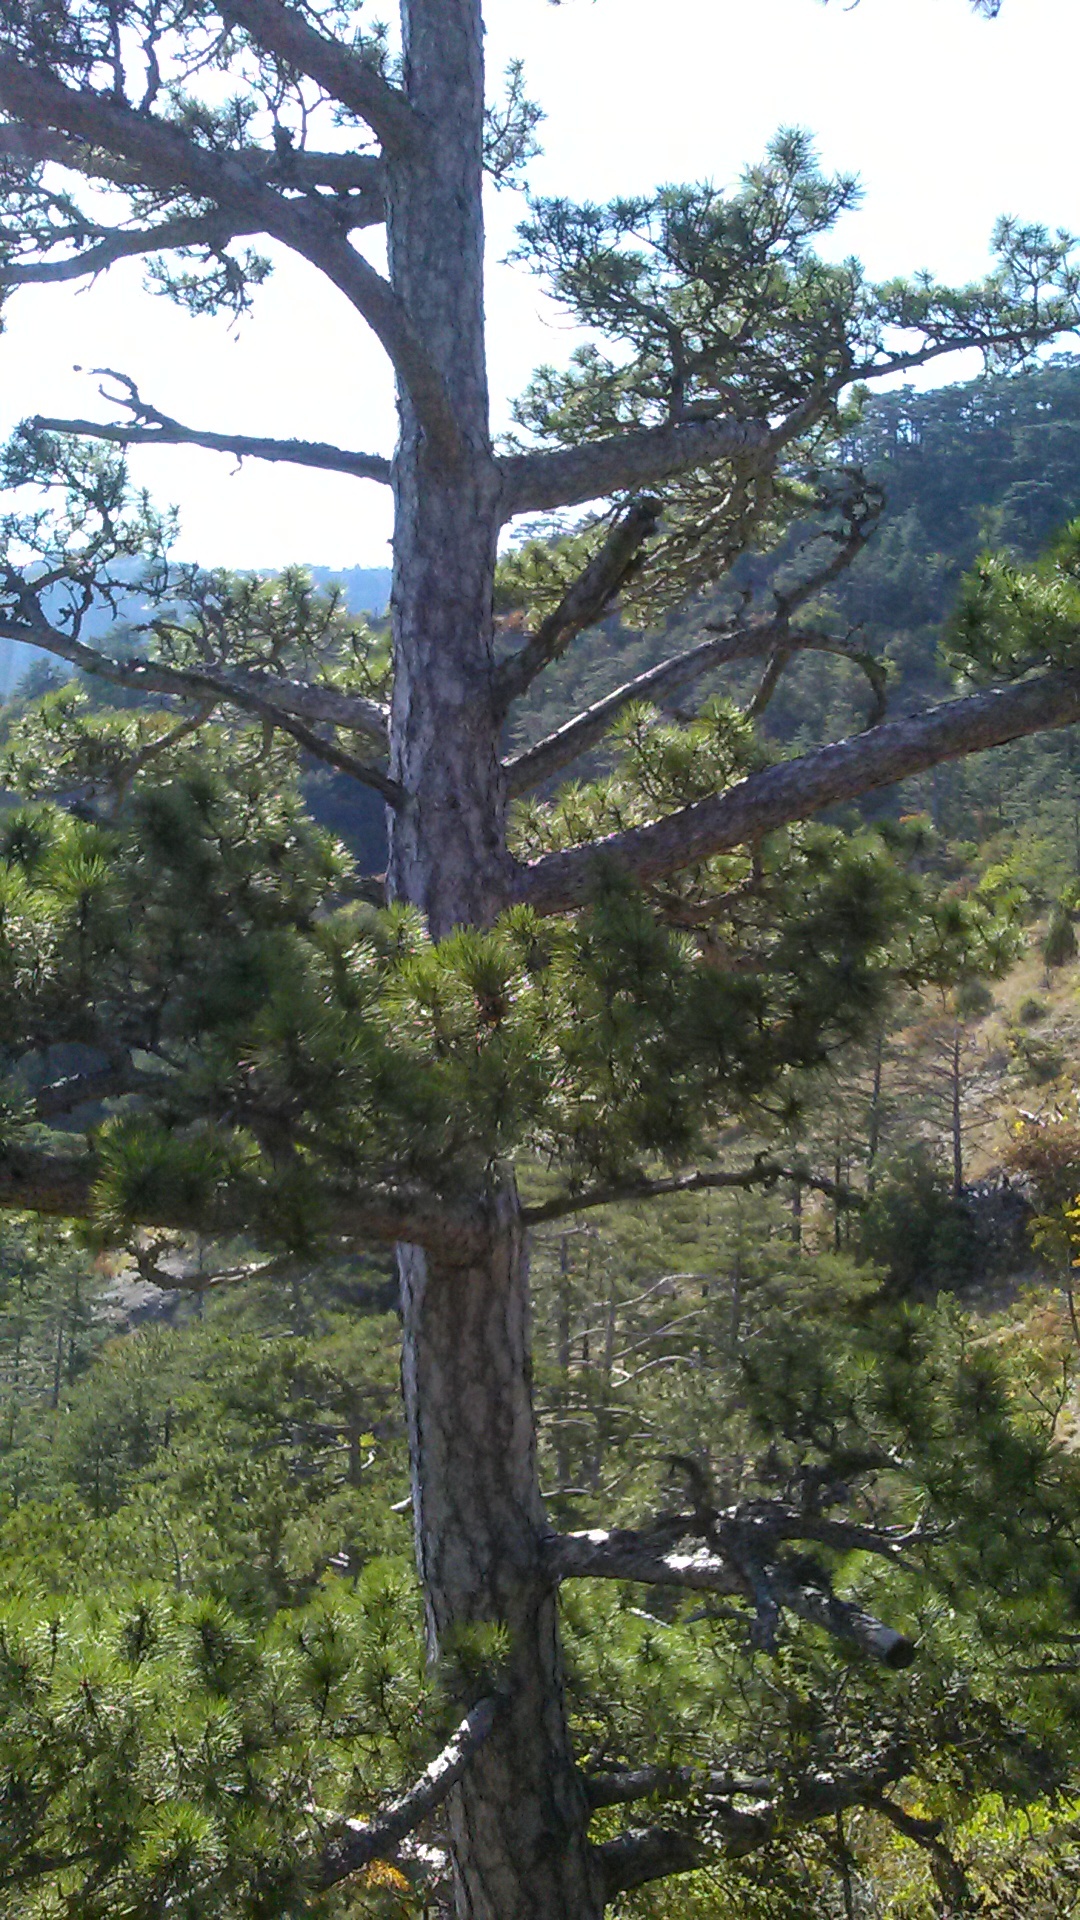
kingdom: Plantae
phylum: Tracheophyta
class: Pinopsida
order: Pinales
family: Pinaceae
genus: Pinus
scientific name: Pinus nigra
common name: Austrian pine
